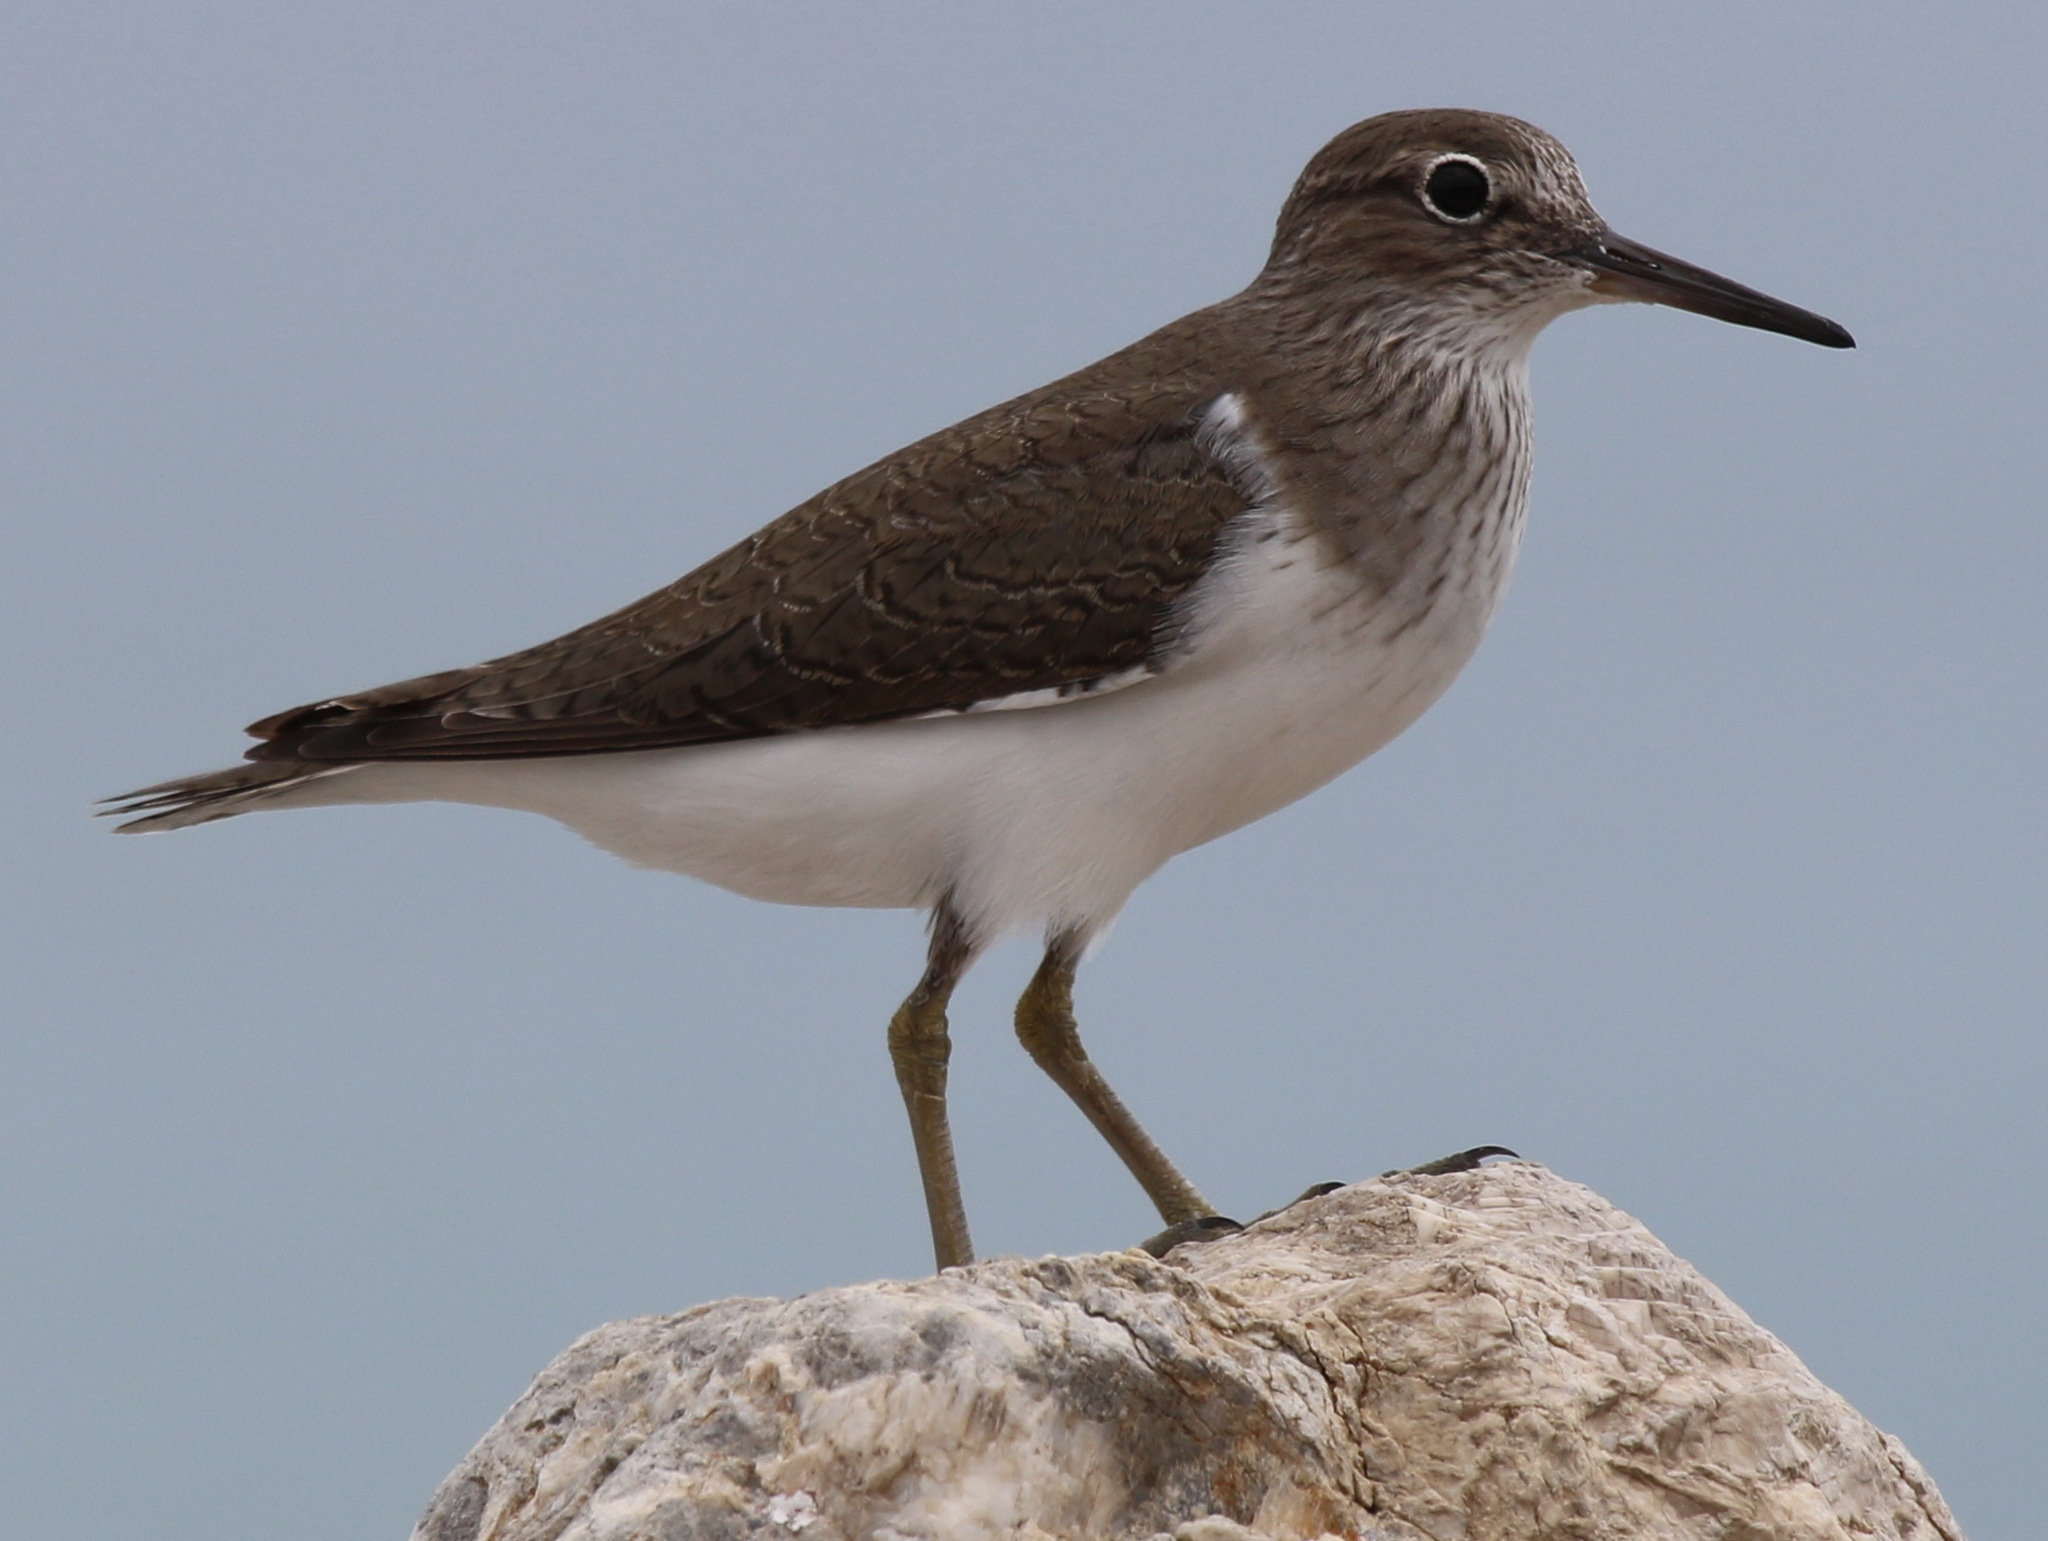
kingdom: Animalia
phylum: Chordata
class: Aves
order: Charadriiformes
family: Scolopacidae
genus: Actitis
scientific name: Actitis hypoleucos
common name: Common sandpiper
